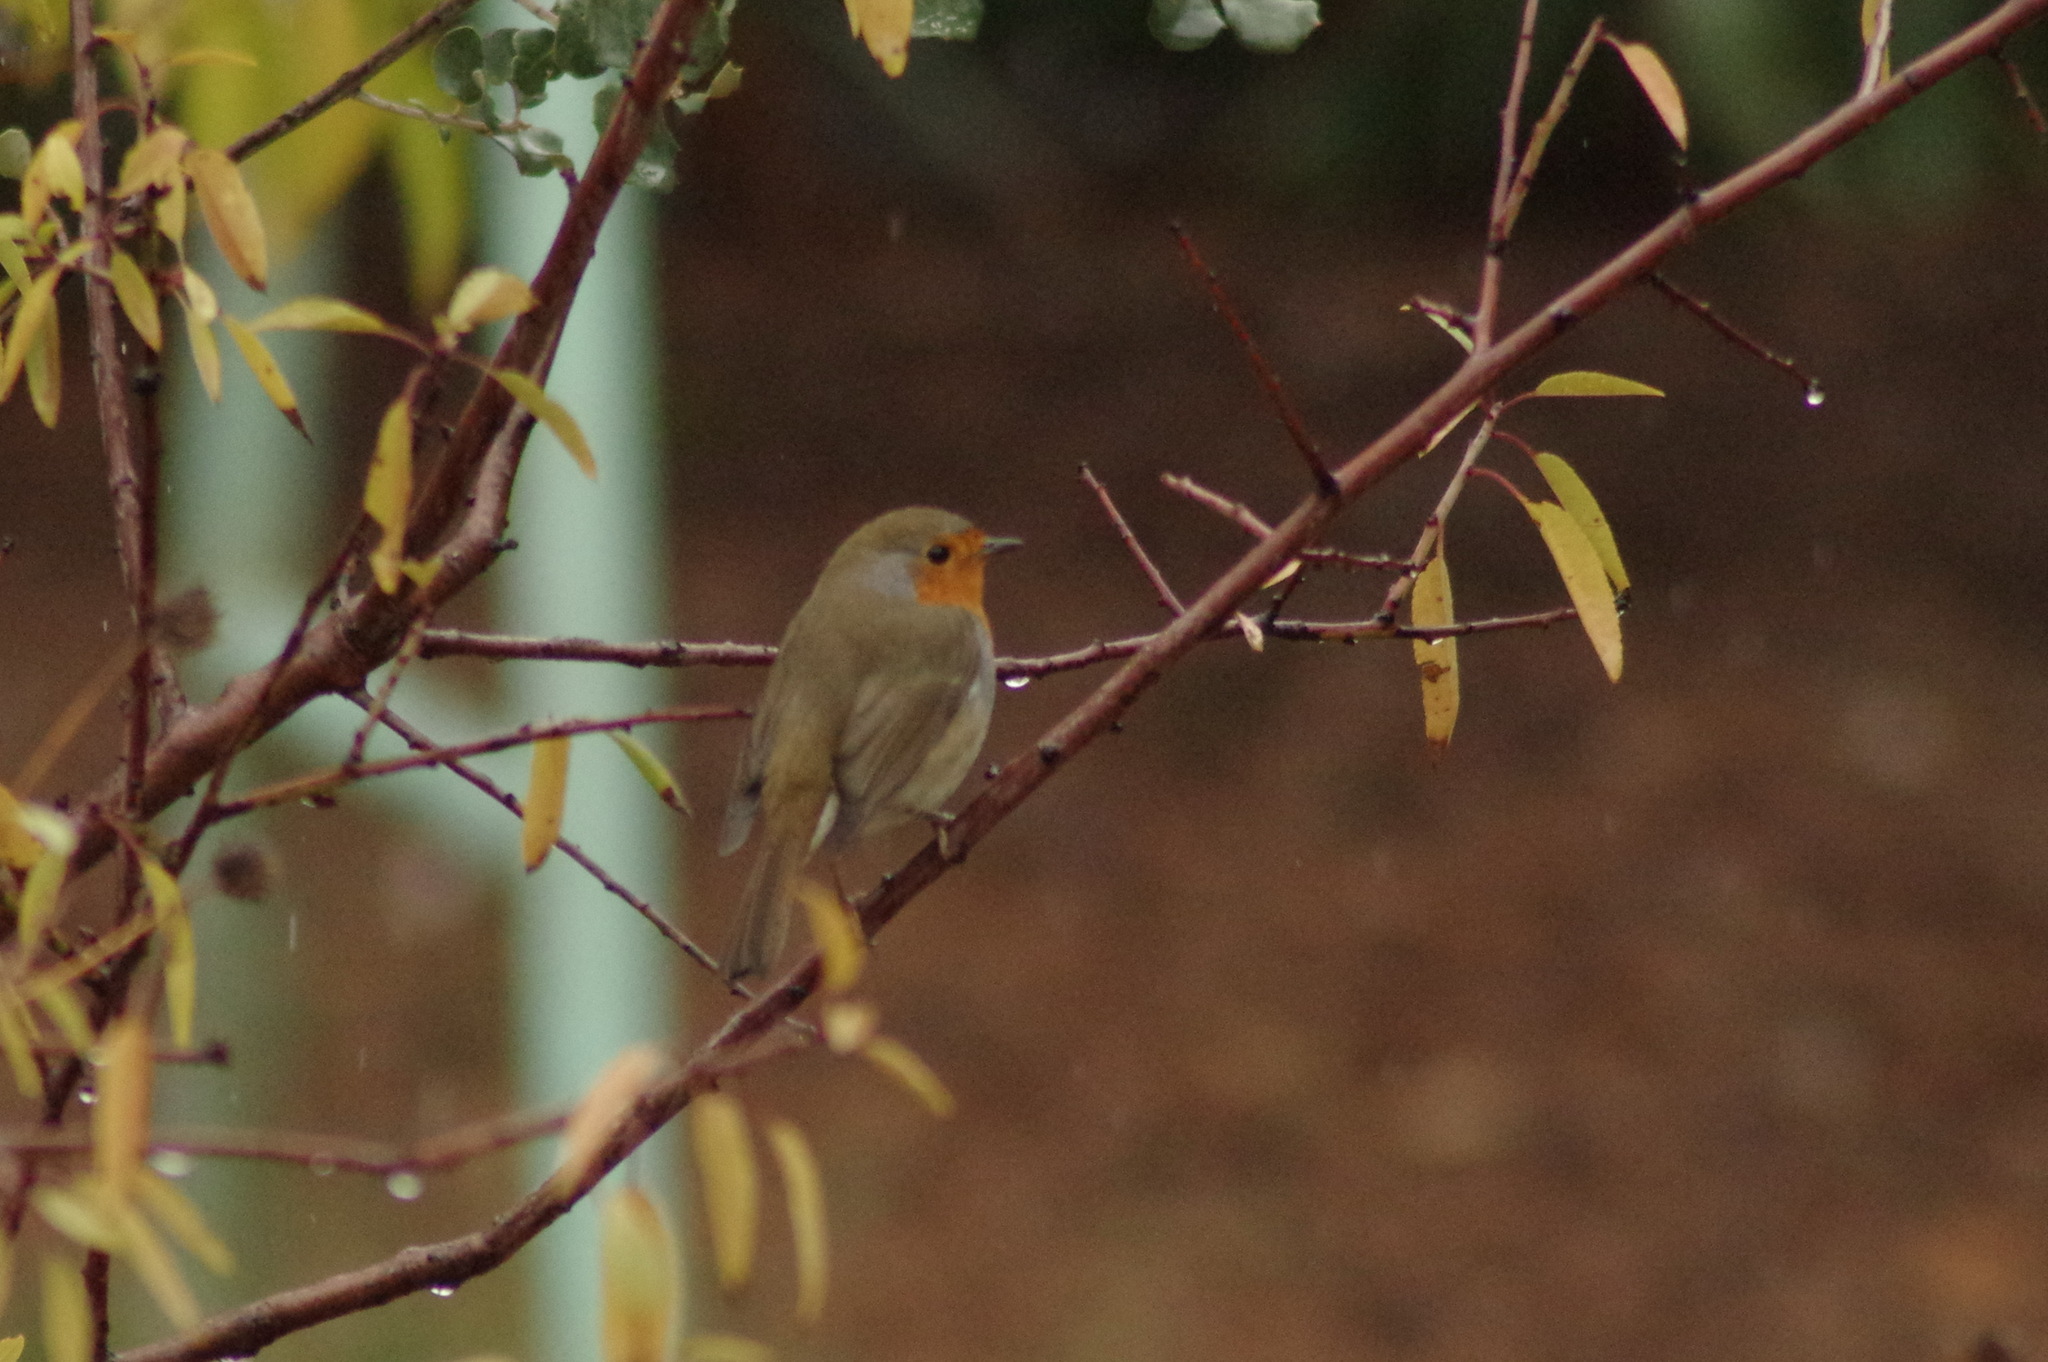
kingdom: Animalia
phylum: Chordata
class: Aves
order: Passeriformes
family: Muscicapidae
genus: Erithacus
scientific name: Erithacus rubecula
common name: European robin
